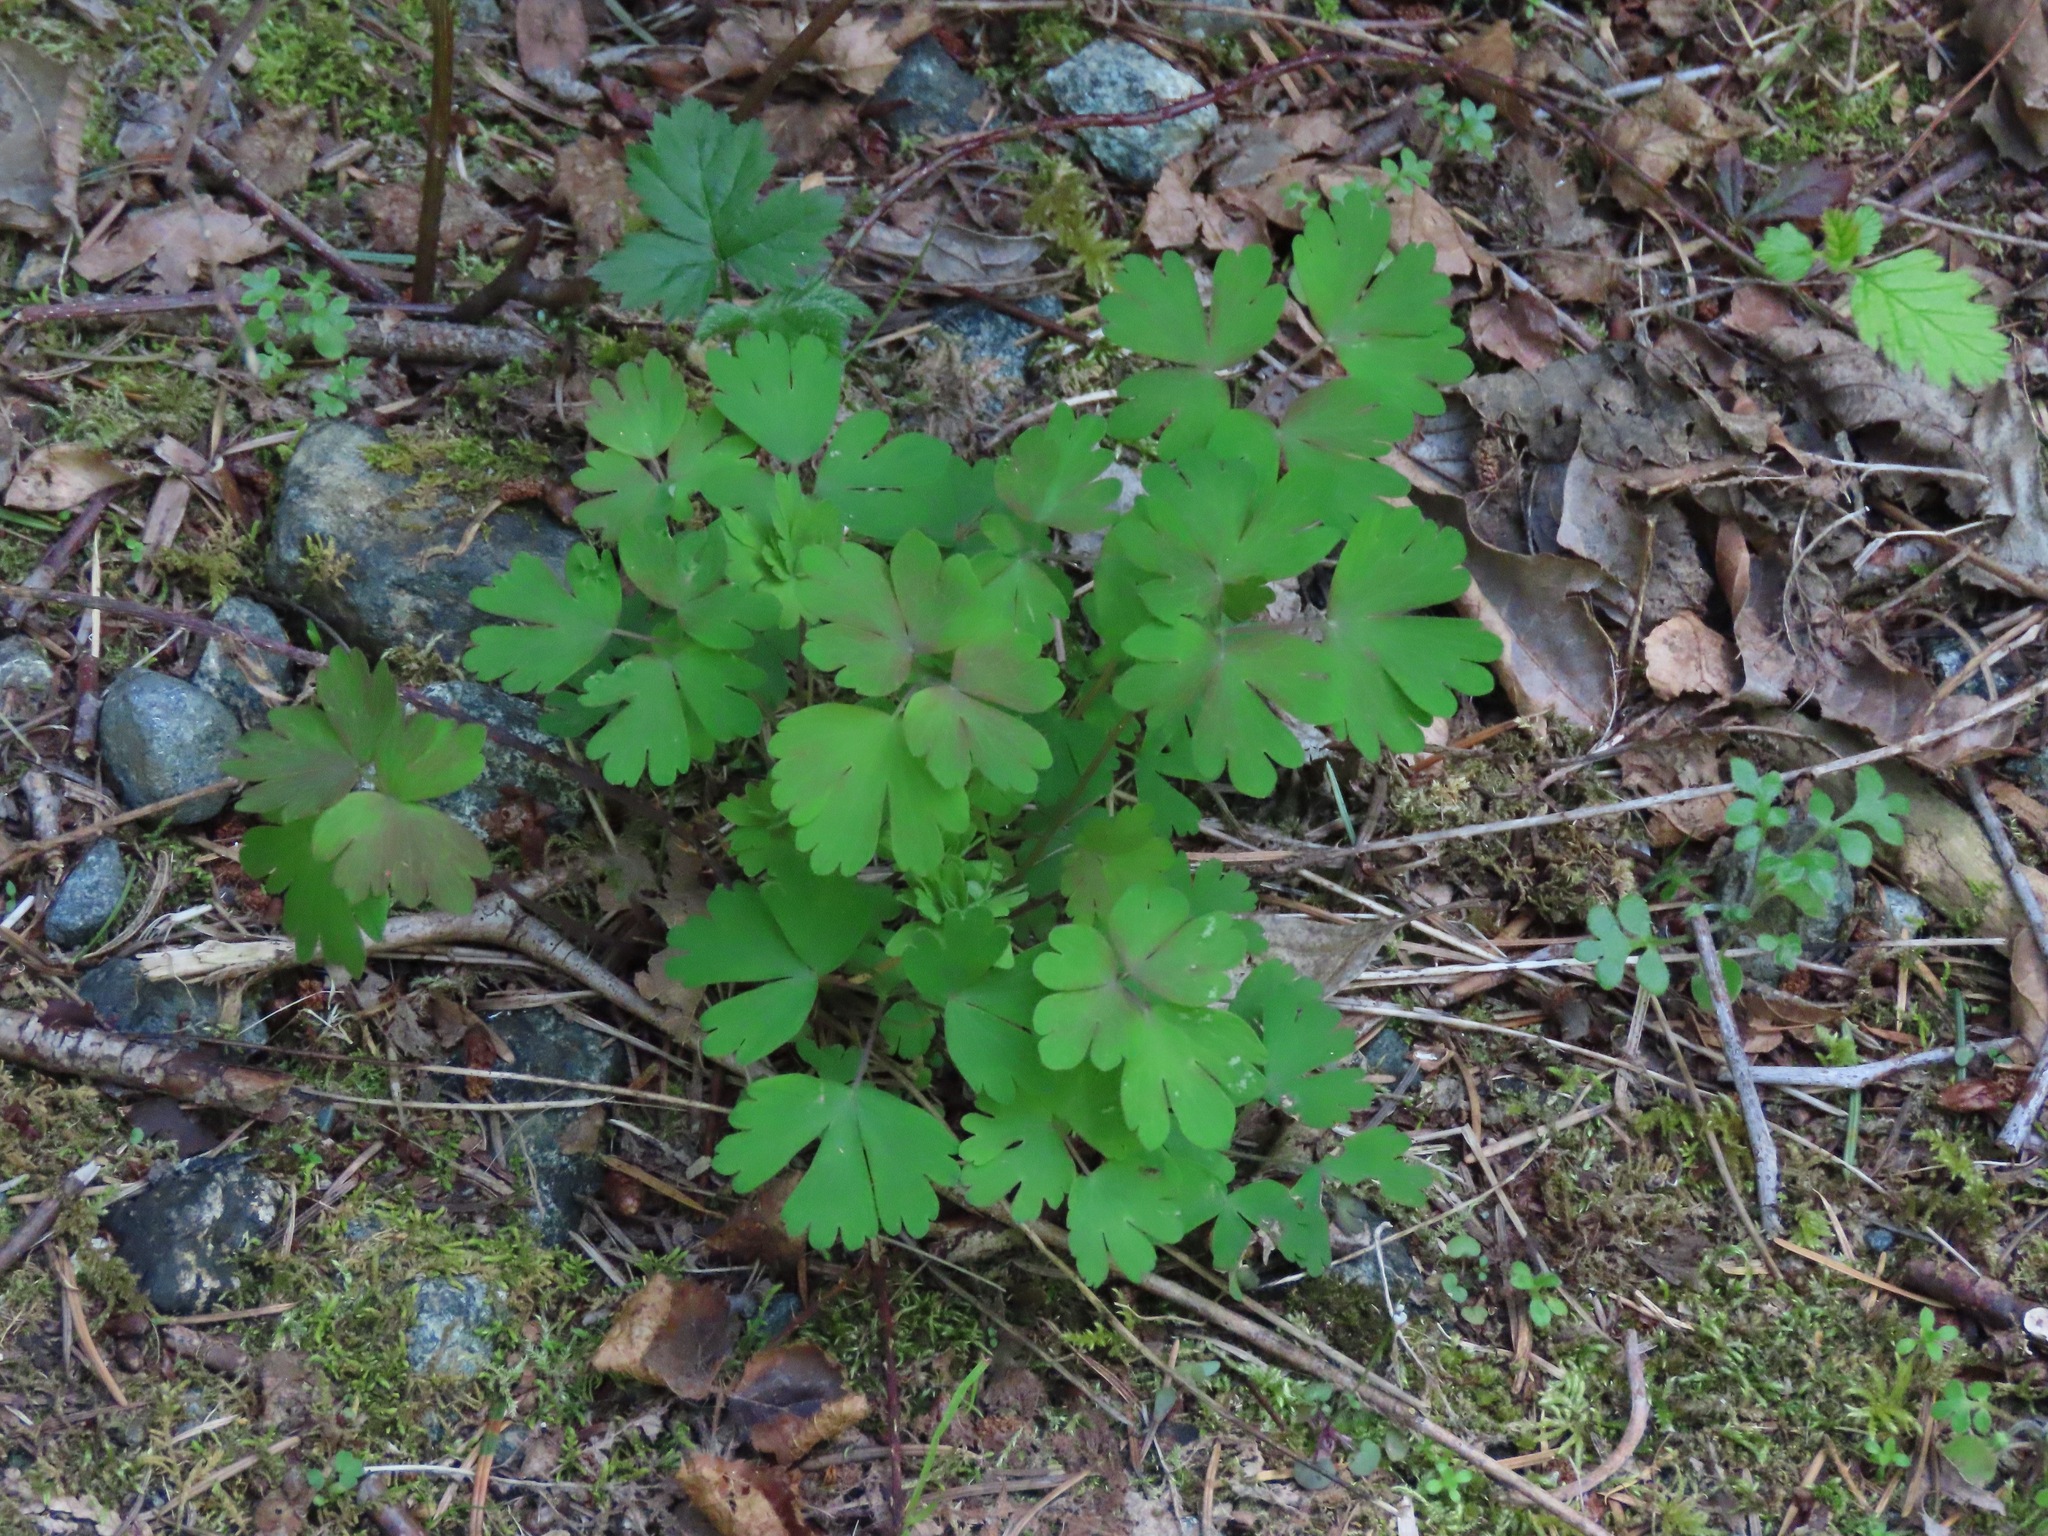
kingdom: Plantae
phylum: Tracheophyta
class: Magnoliopsida
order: Ranunculales
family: Ranunculaceae
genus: Aquilegia
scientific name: Aquilegia formosa
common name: Sitka columbine
